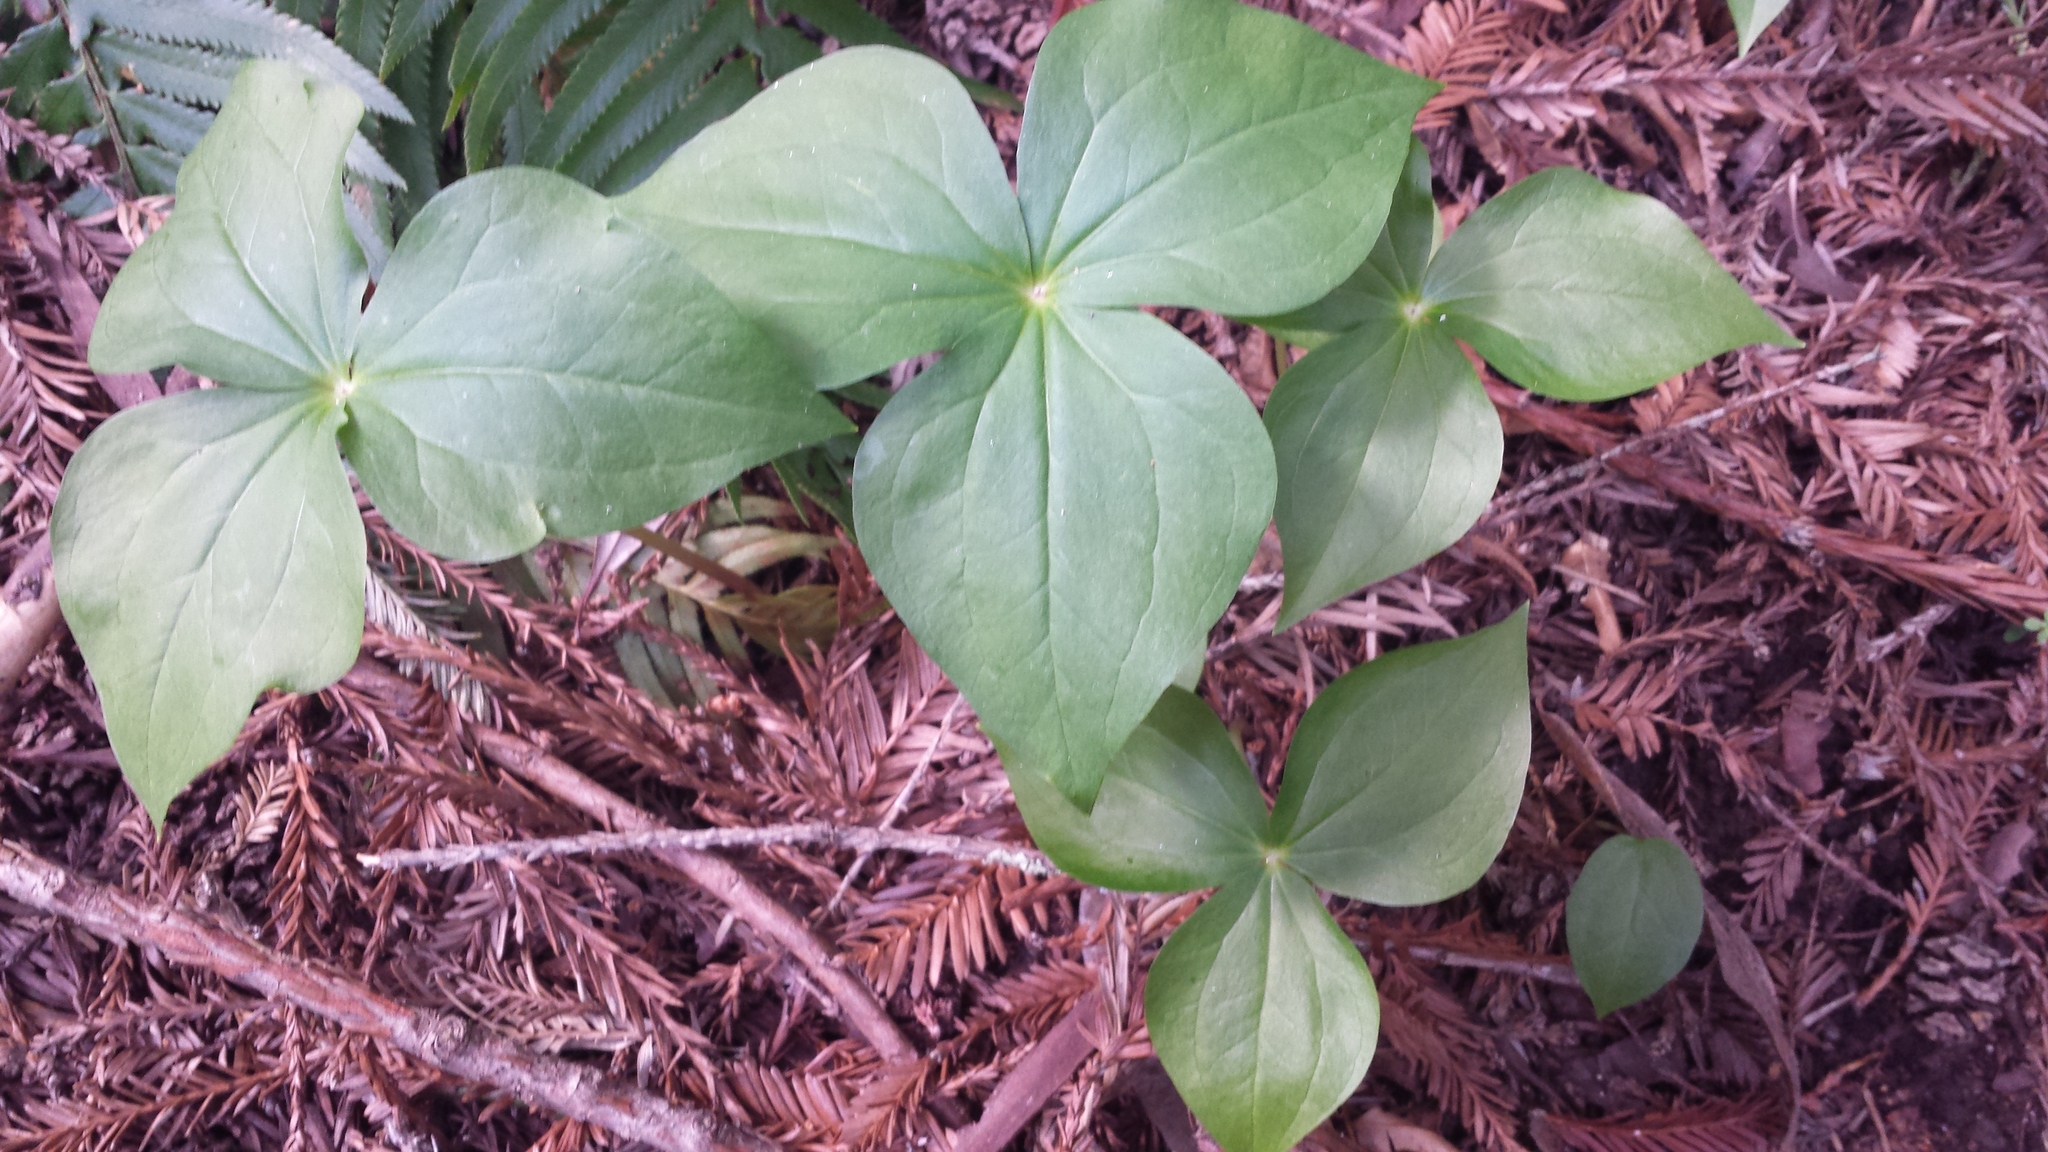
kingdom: Plantae
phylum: Tracheophyta
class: Liliopsida
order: Liliales
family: Melanthiaceae
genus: Trillium
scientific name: Trillium ovatum
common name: Pacific trillium
